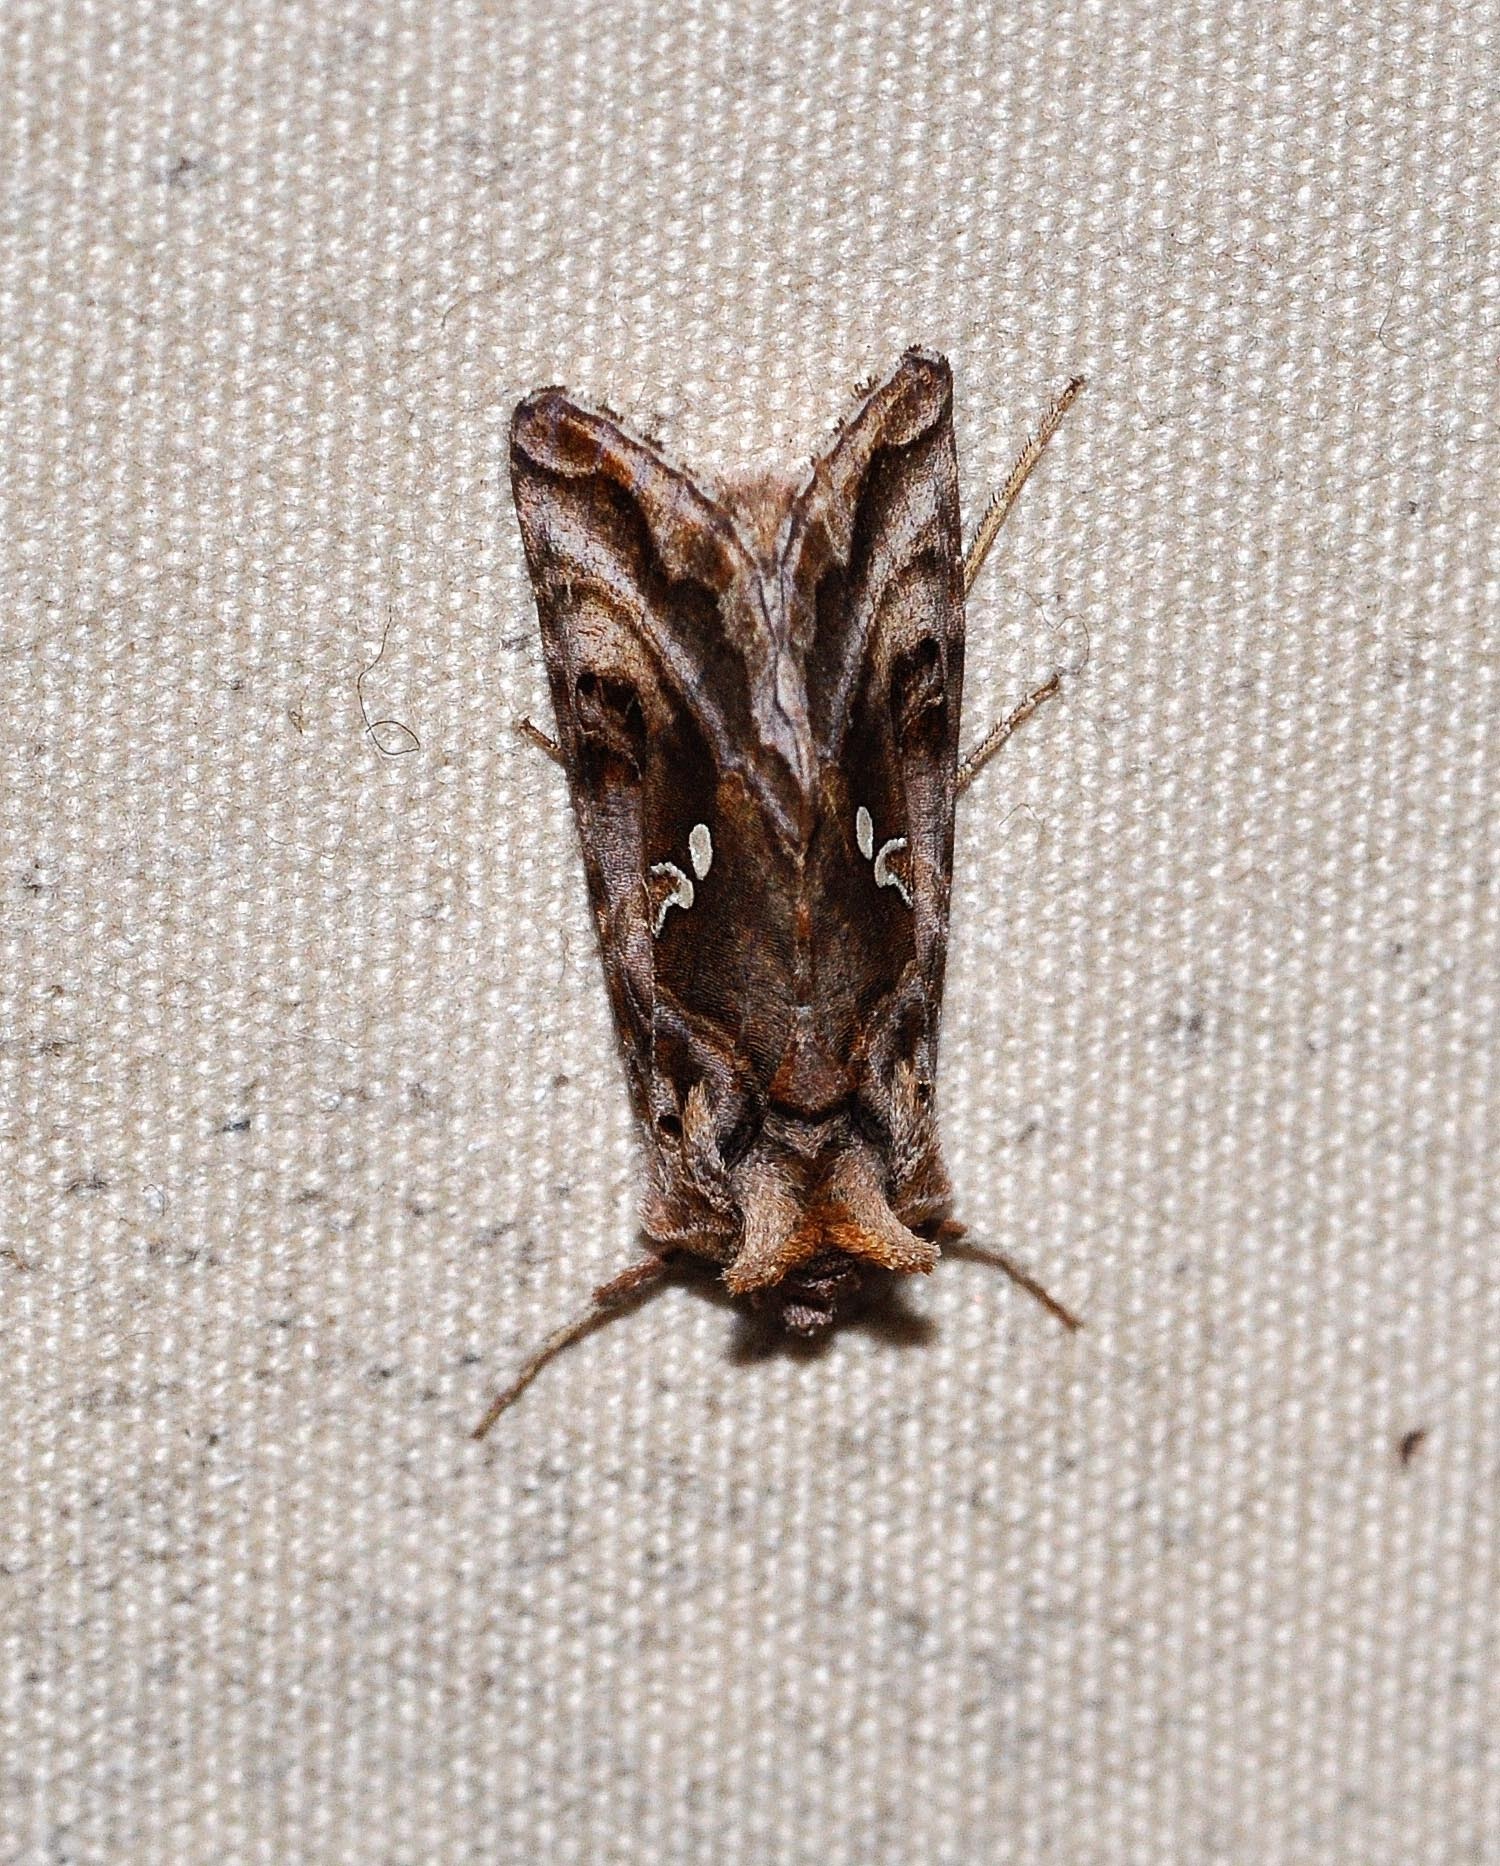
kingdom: Animalia
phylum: Arthropoda
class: Insecta
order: Lepidoptera
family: Noctuidae
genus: Autographa
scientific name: Autographa gamma
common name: Silver y
